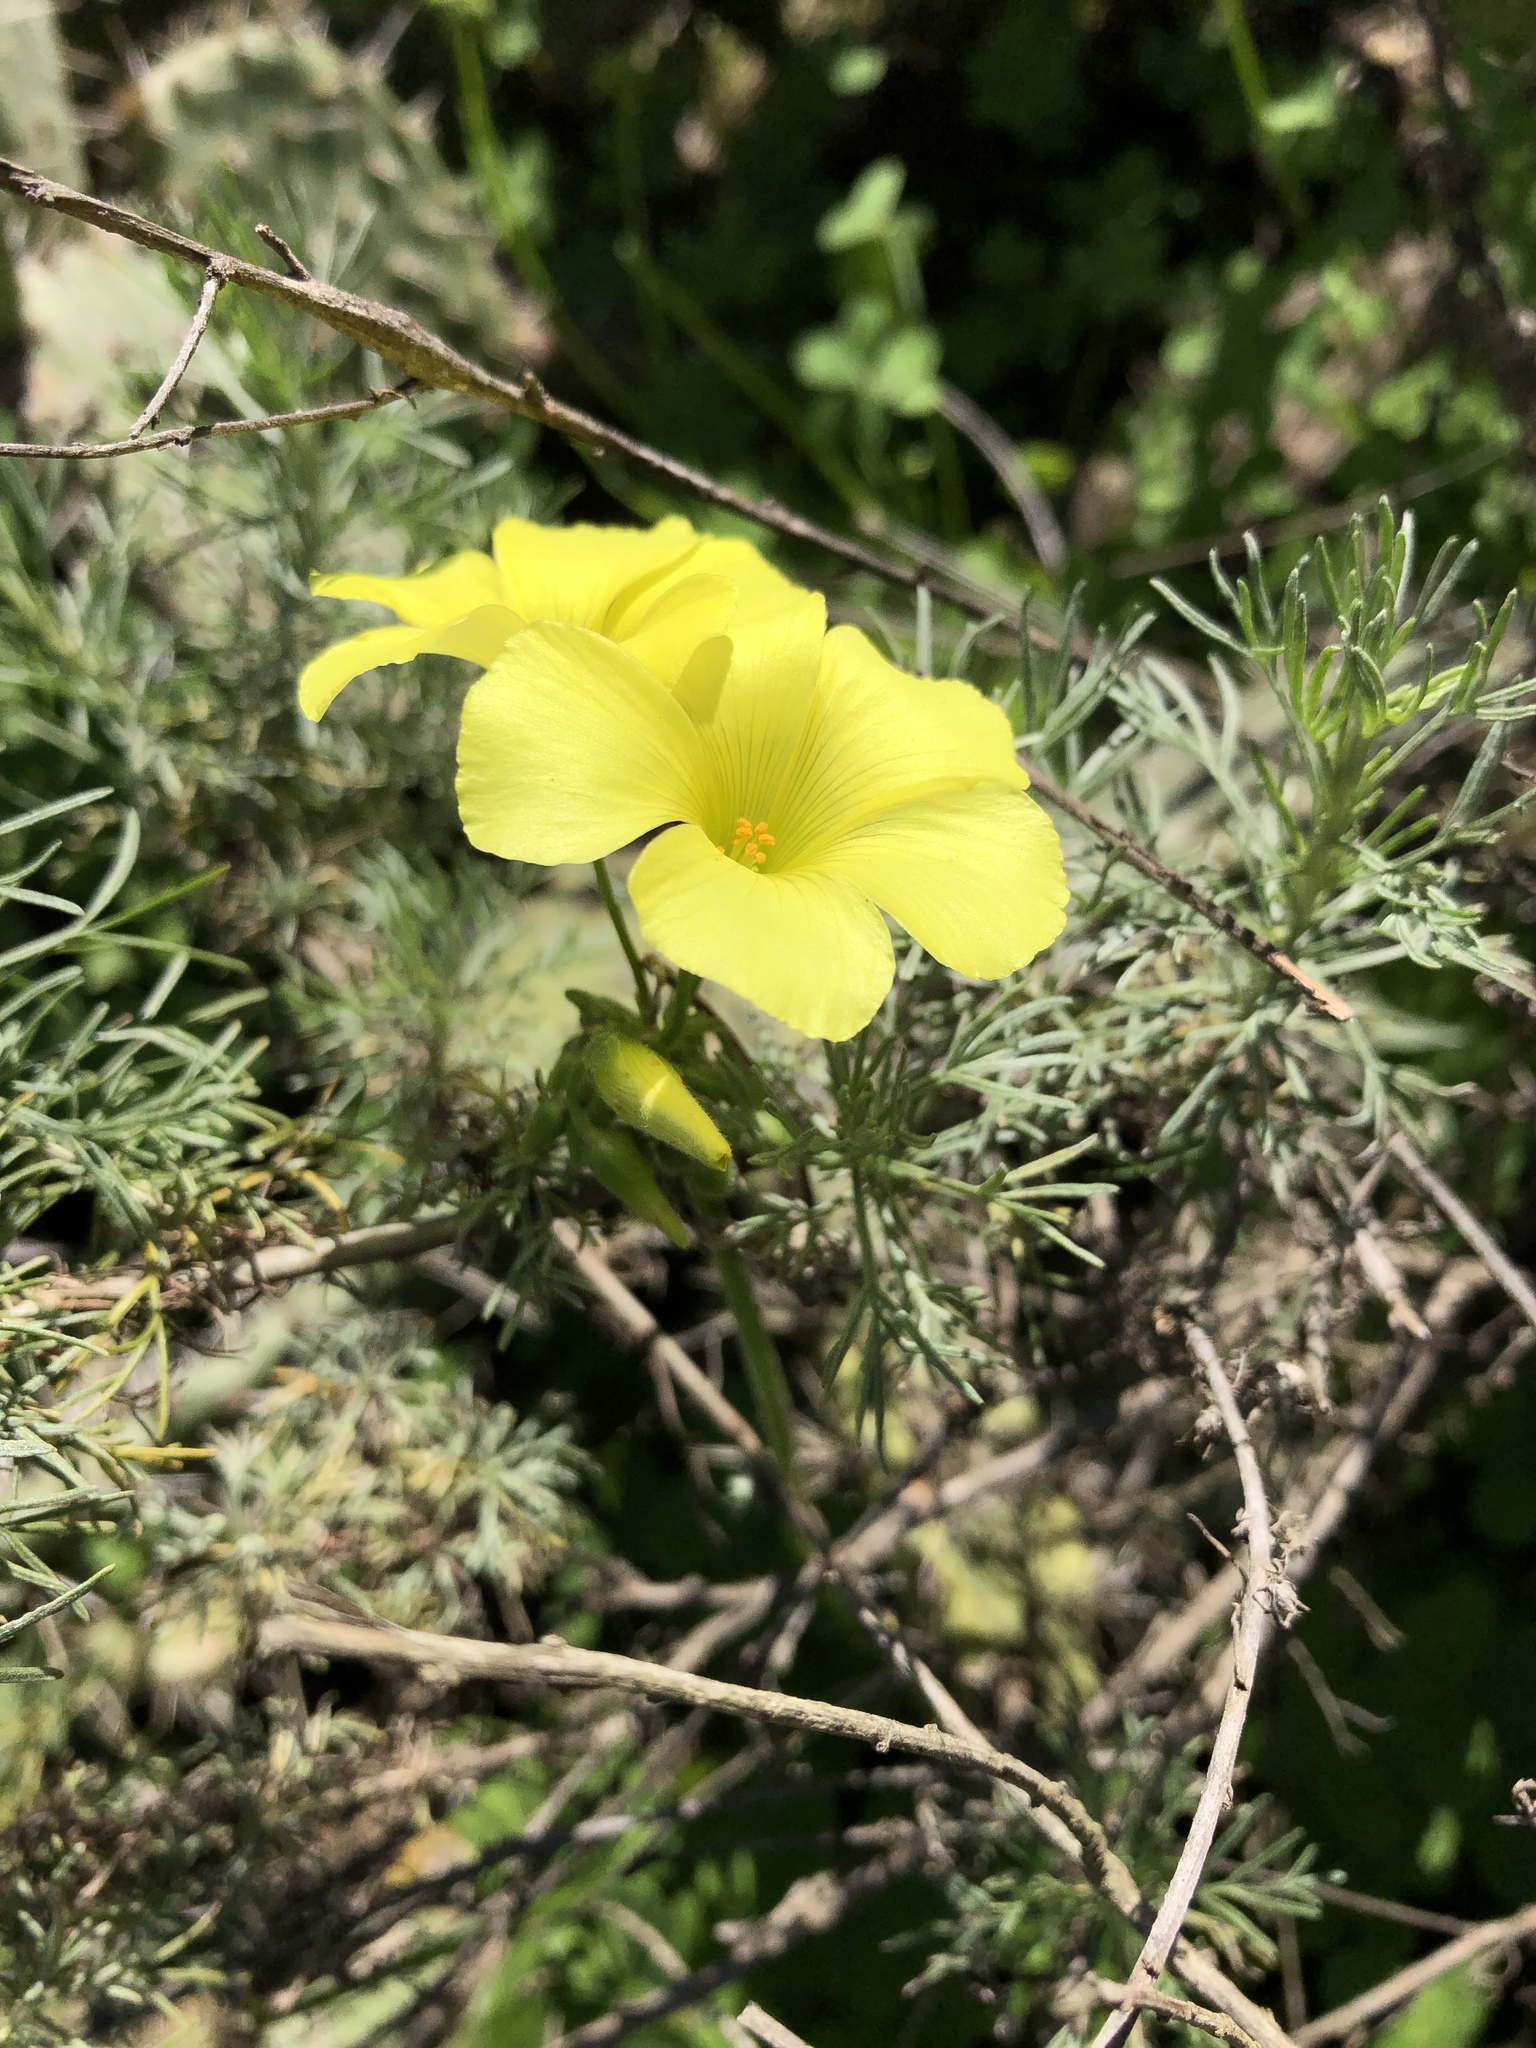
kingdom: Plantae
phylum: Tracheophyta
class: Magnoliopsida
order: Oxalidales
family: Oxalidaceae
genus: Oxalis
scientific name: Oxalis pes-caprae
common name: Bermuda-buttercup
